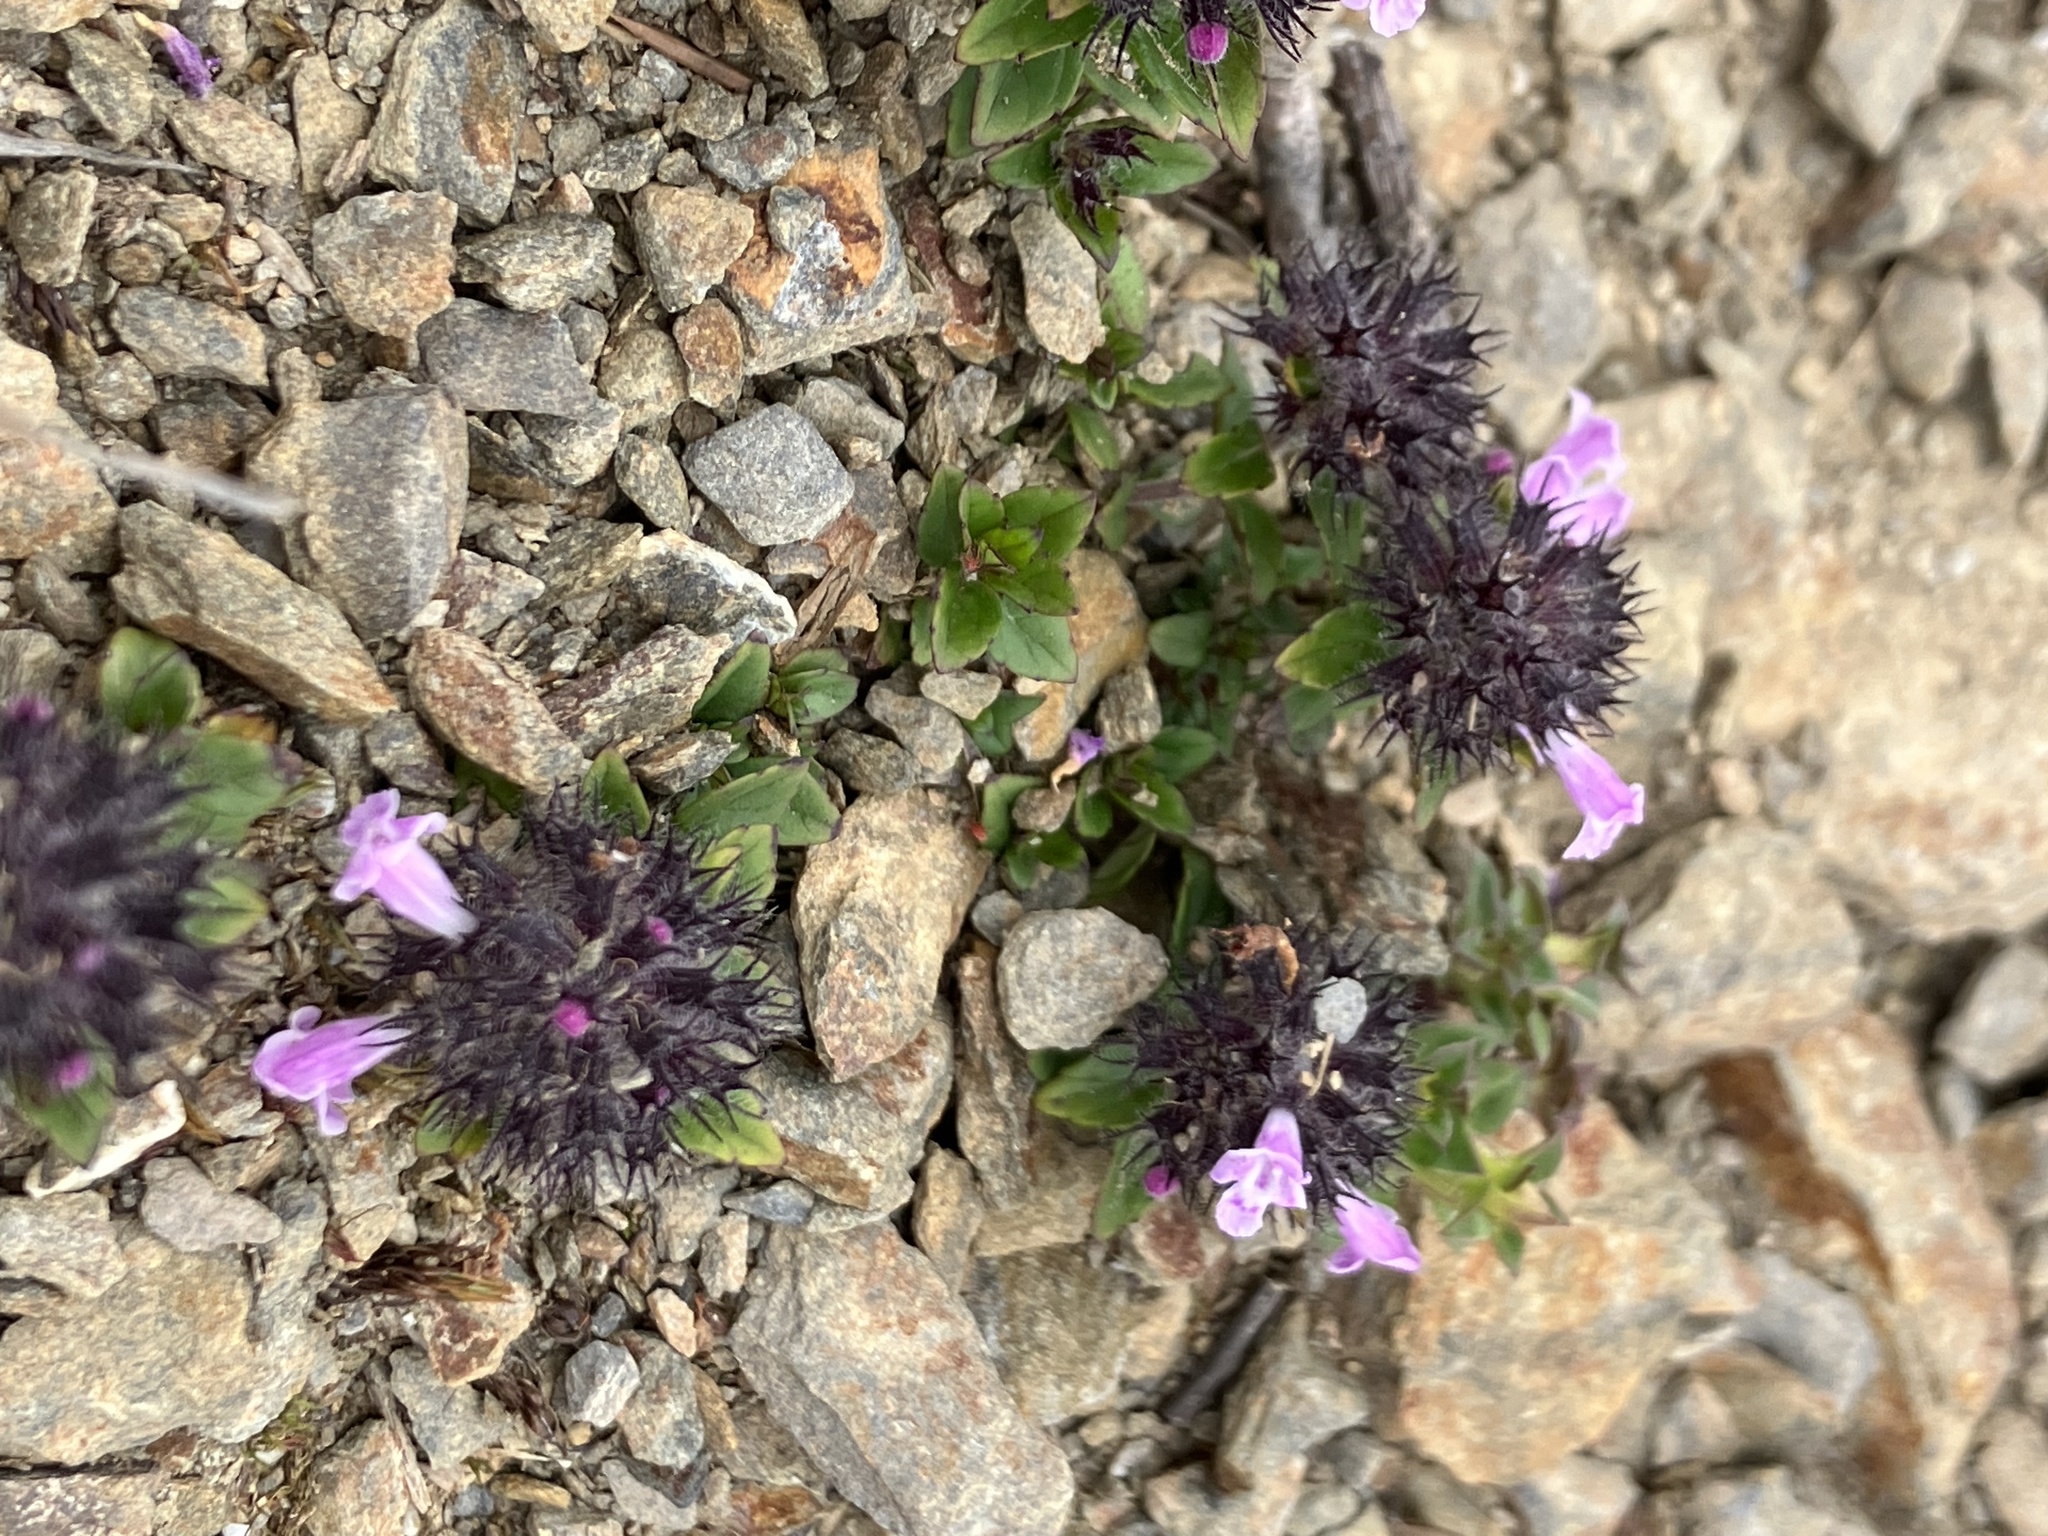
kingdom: Plantae
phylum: Tracheophyta
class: Magnoliopsida
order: Lamiales
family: Lamiaceae
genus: Clinopodium
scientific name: Clinopodium laxiflorum
